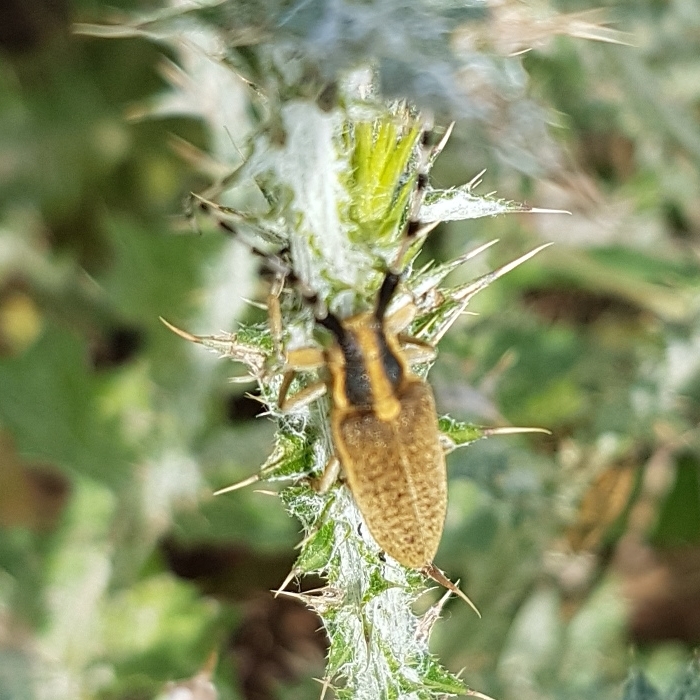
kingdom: Animalia
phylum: Arthropoda
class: Insecta
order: Coleoptera
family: Cerambycidae
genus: Agapanthia
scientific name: Agapanthia dahlii
